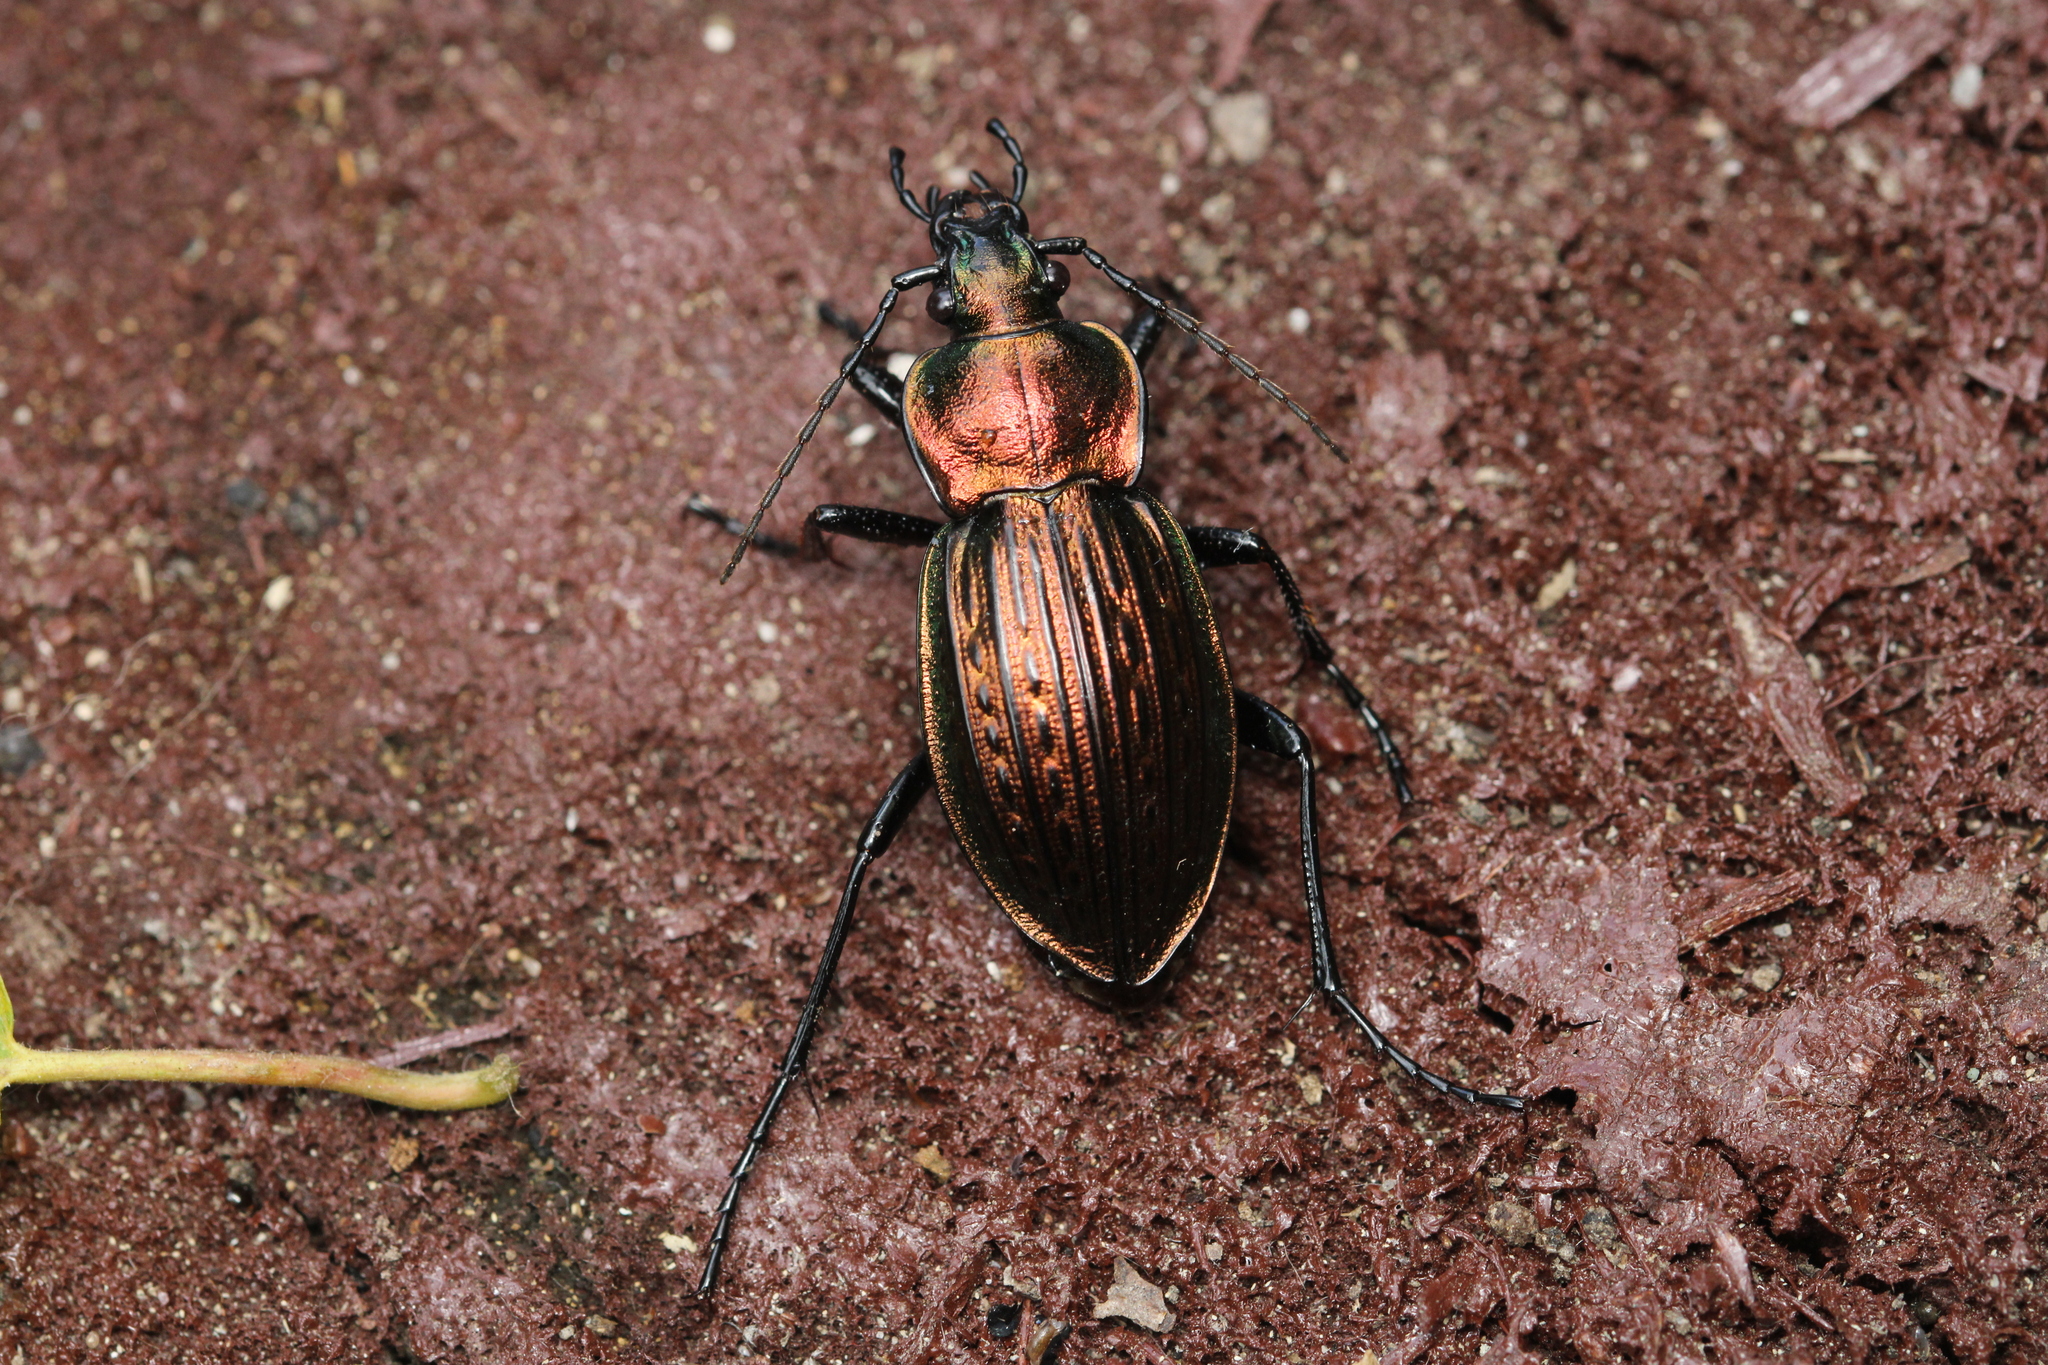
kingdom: Animalia
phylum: Arthropoda
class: Insecta
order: Coleoptera
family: Carabidae
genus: Carabus
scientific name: Carabus ulrichii
